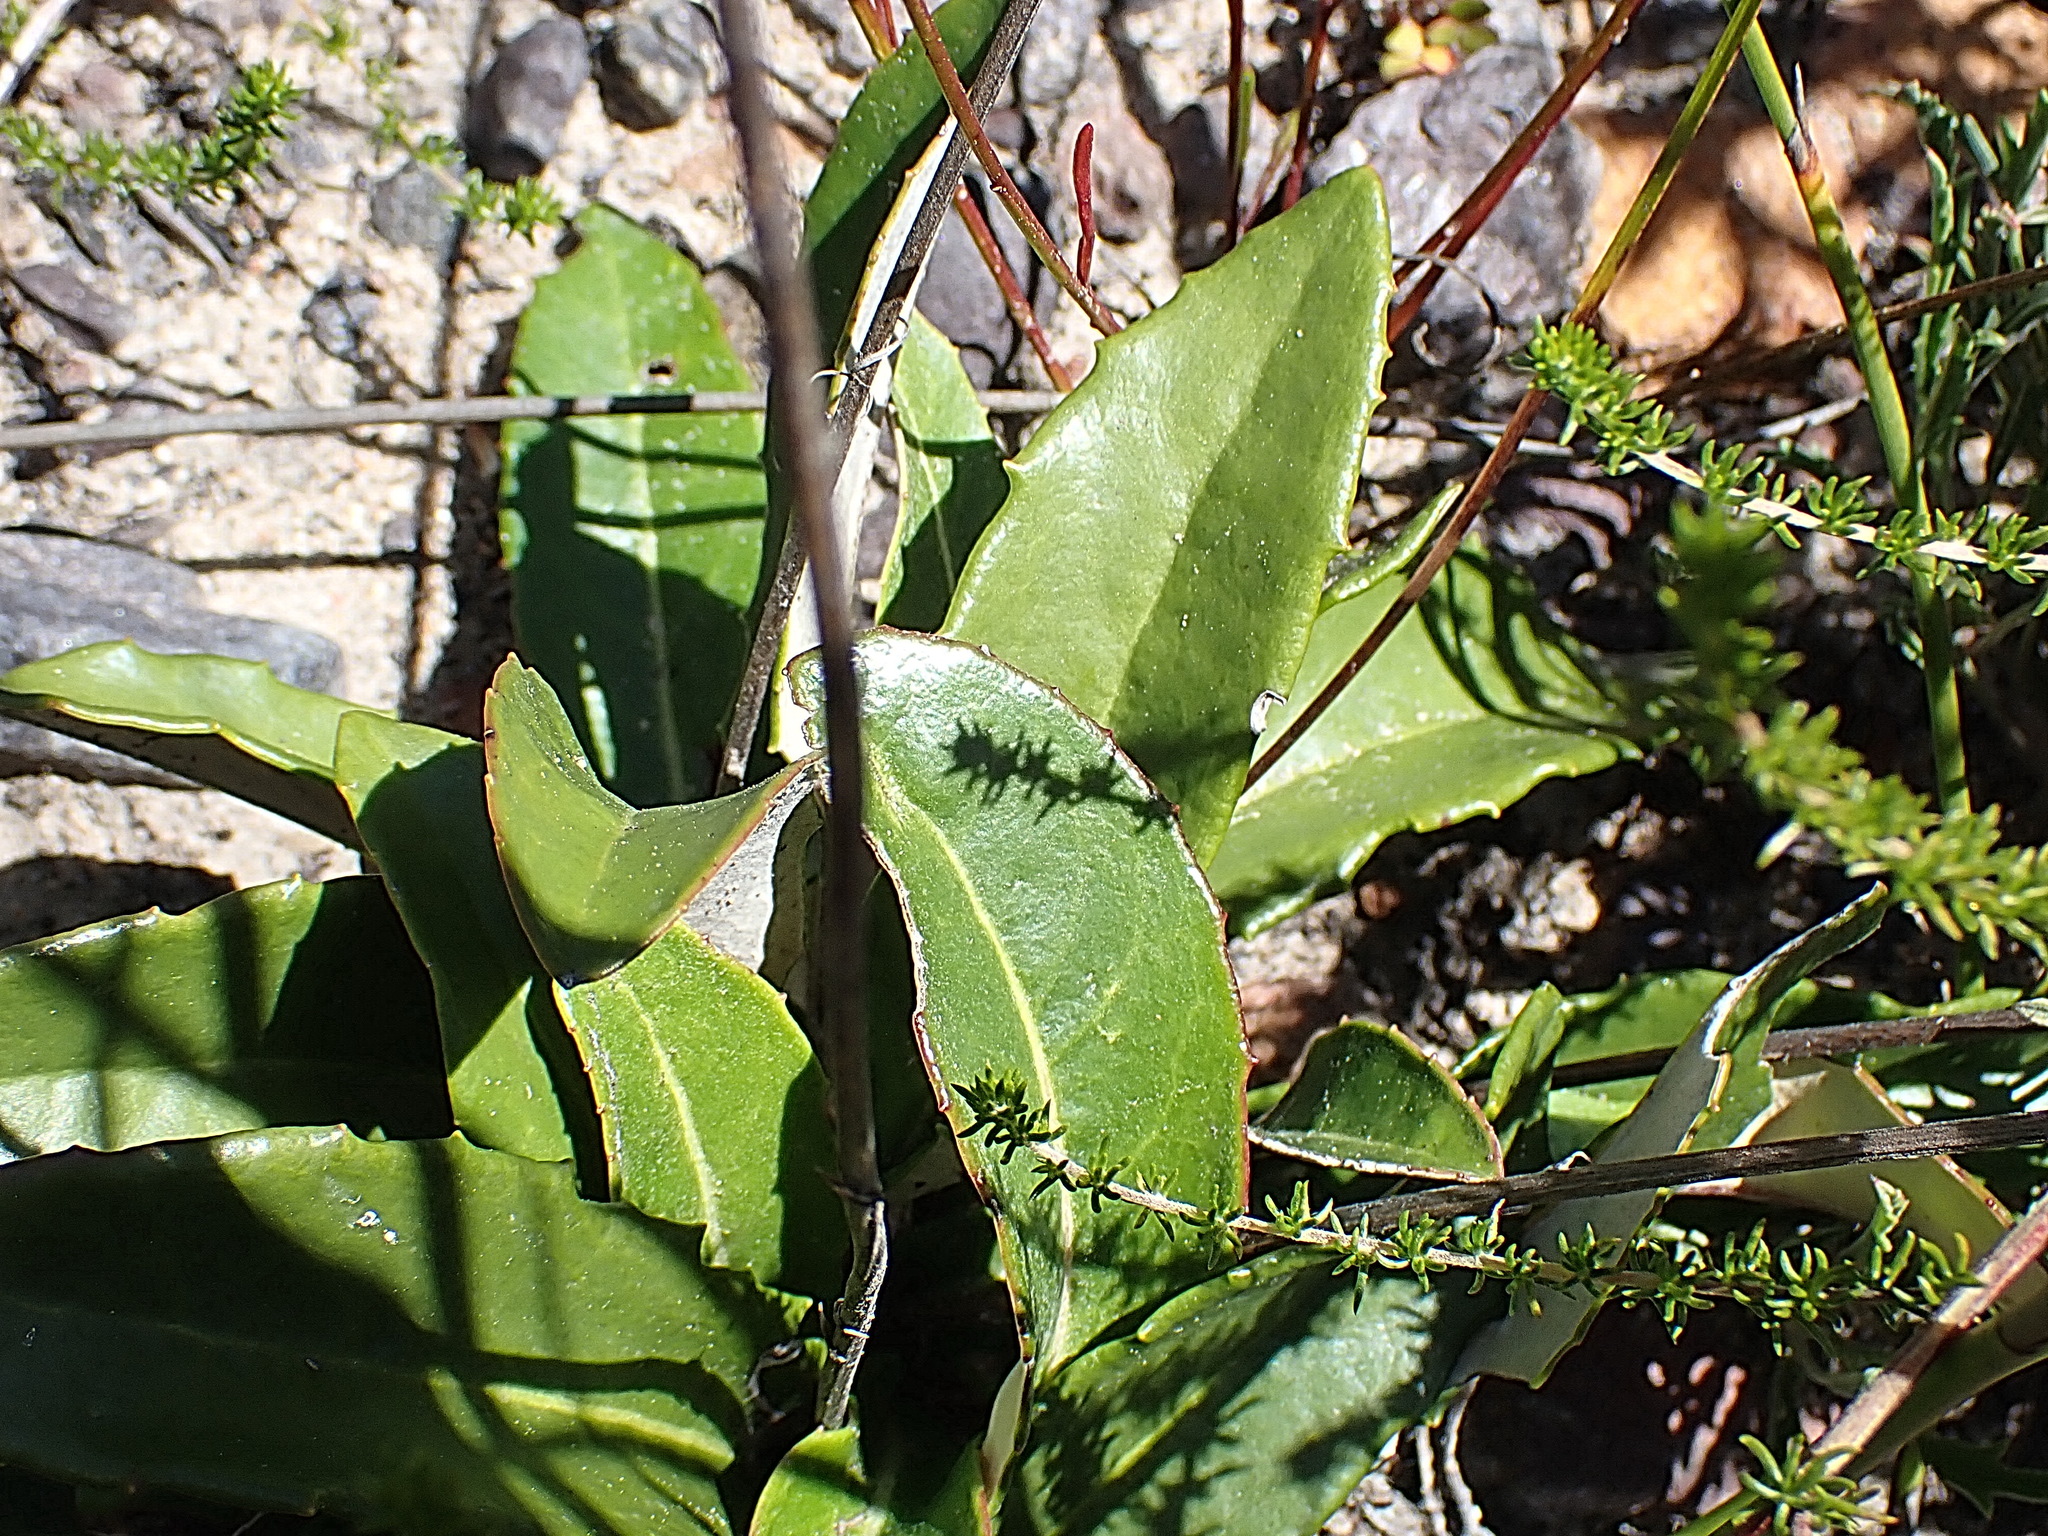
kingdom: Plantae
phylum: Tracheophyta
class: Magnoliopsida
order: Asterales
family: Asteraceae
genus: Gerbera
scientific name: Gerbera serrata
